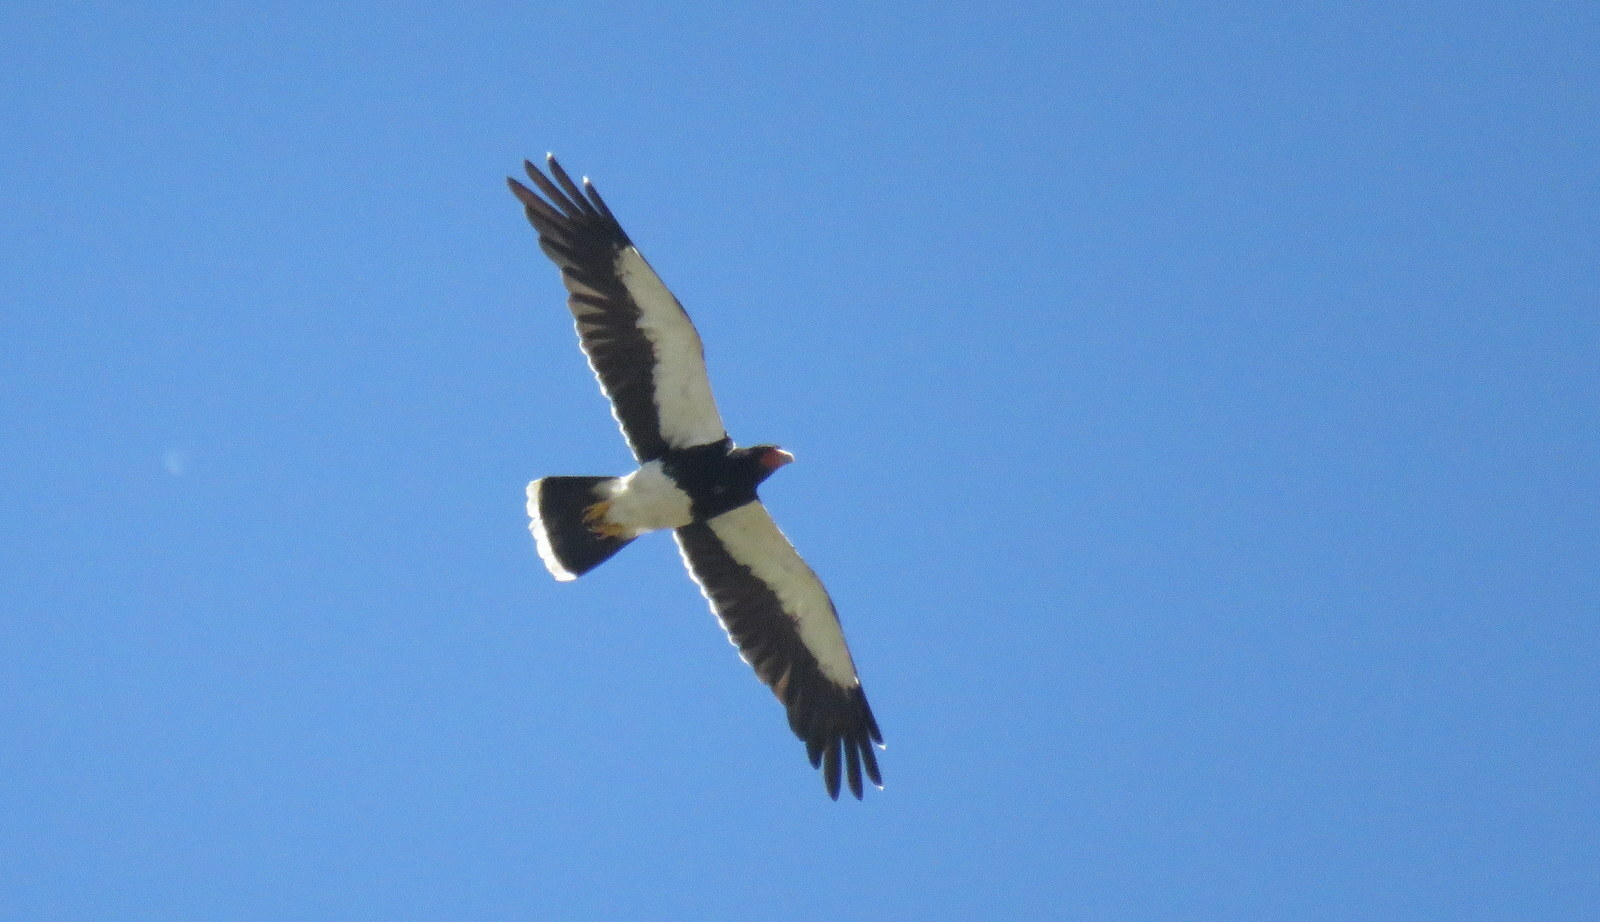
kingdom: Animalia
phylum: Chordata
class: Aves
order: Falconiformes
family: Falconidae
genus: Daptrius
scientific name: Daptrius
